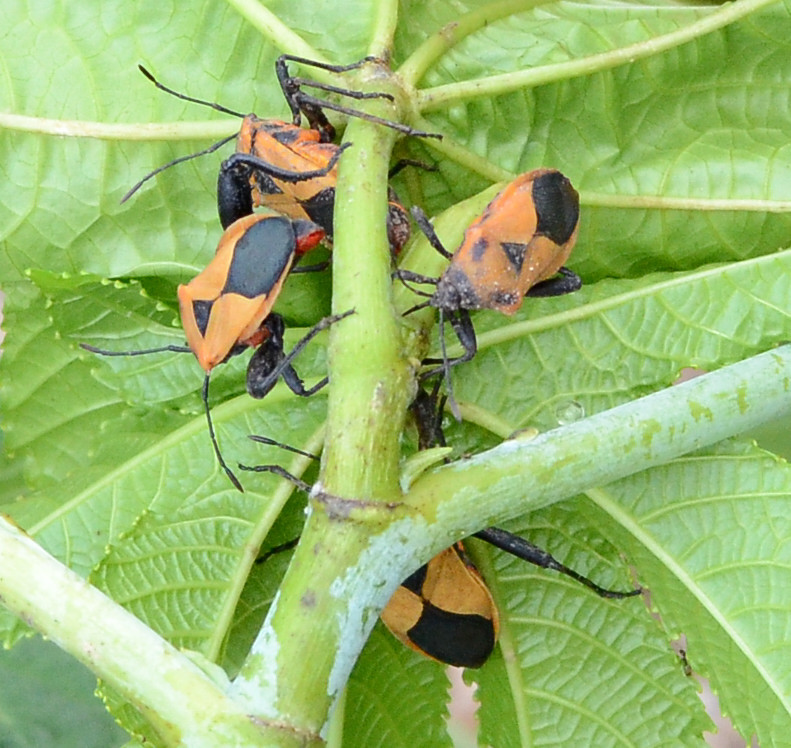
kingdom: Animalia
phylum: Arthropoda
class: Insecta
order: Hemiptera
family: Coreidae
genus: Sagotylus
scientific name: Sagotylus confluens
